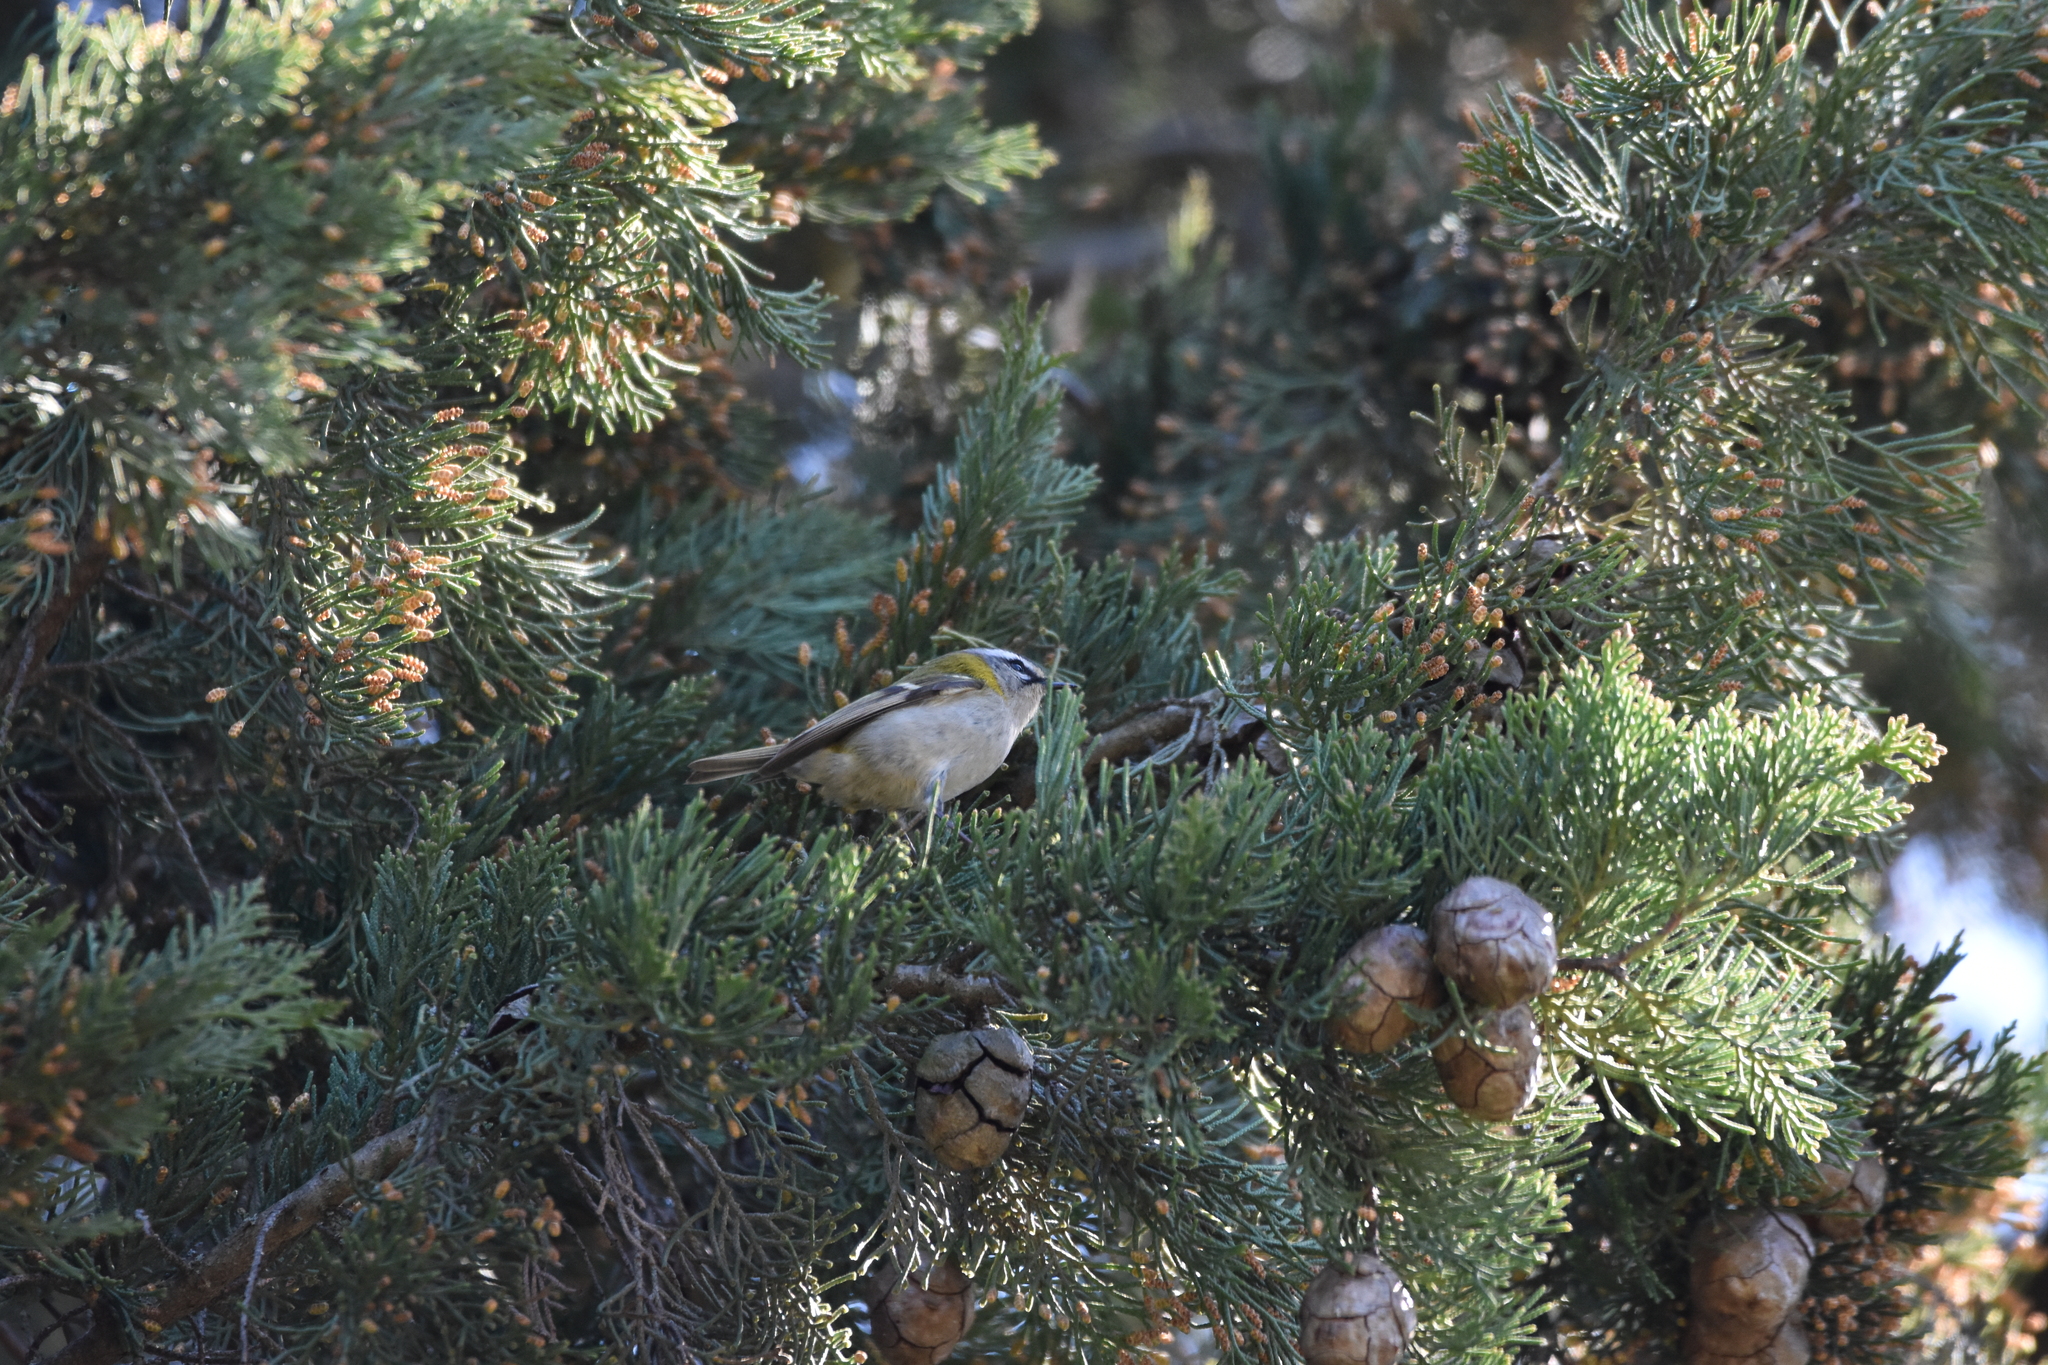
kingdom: Animalia
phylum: Chordata
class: Aves
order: Passeriformes
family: Regulidae
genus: Regulus
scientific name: Regulus ignicapilla
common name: Firecrest
